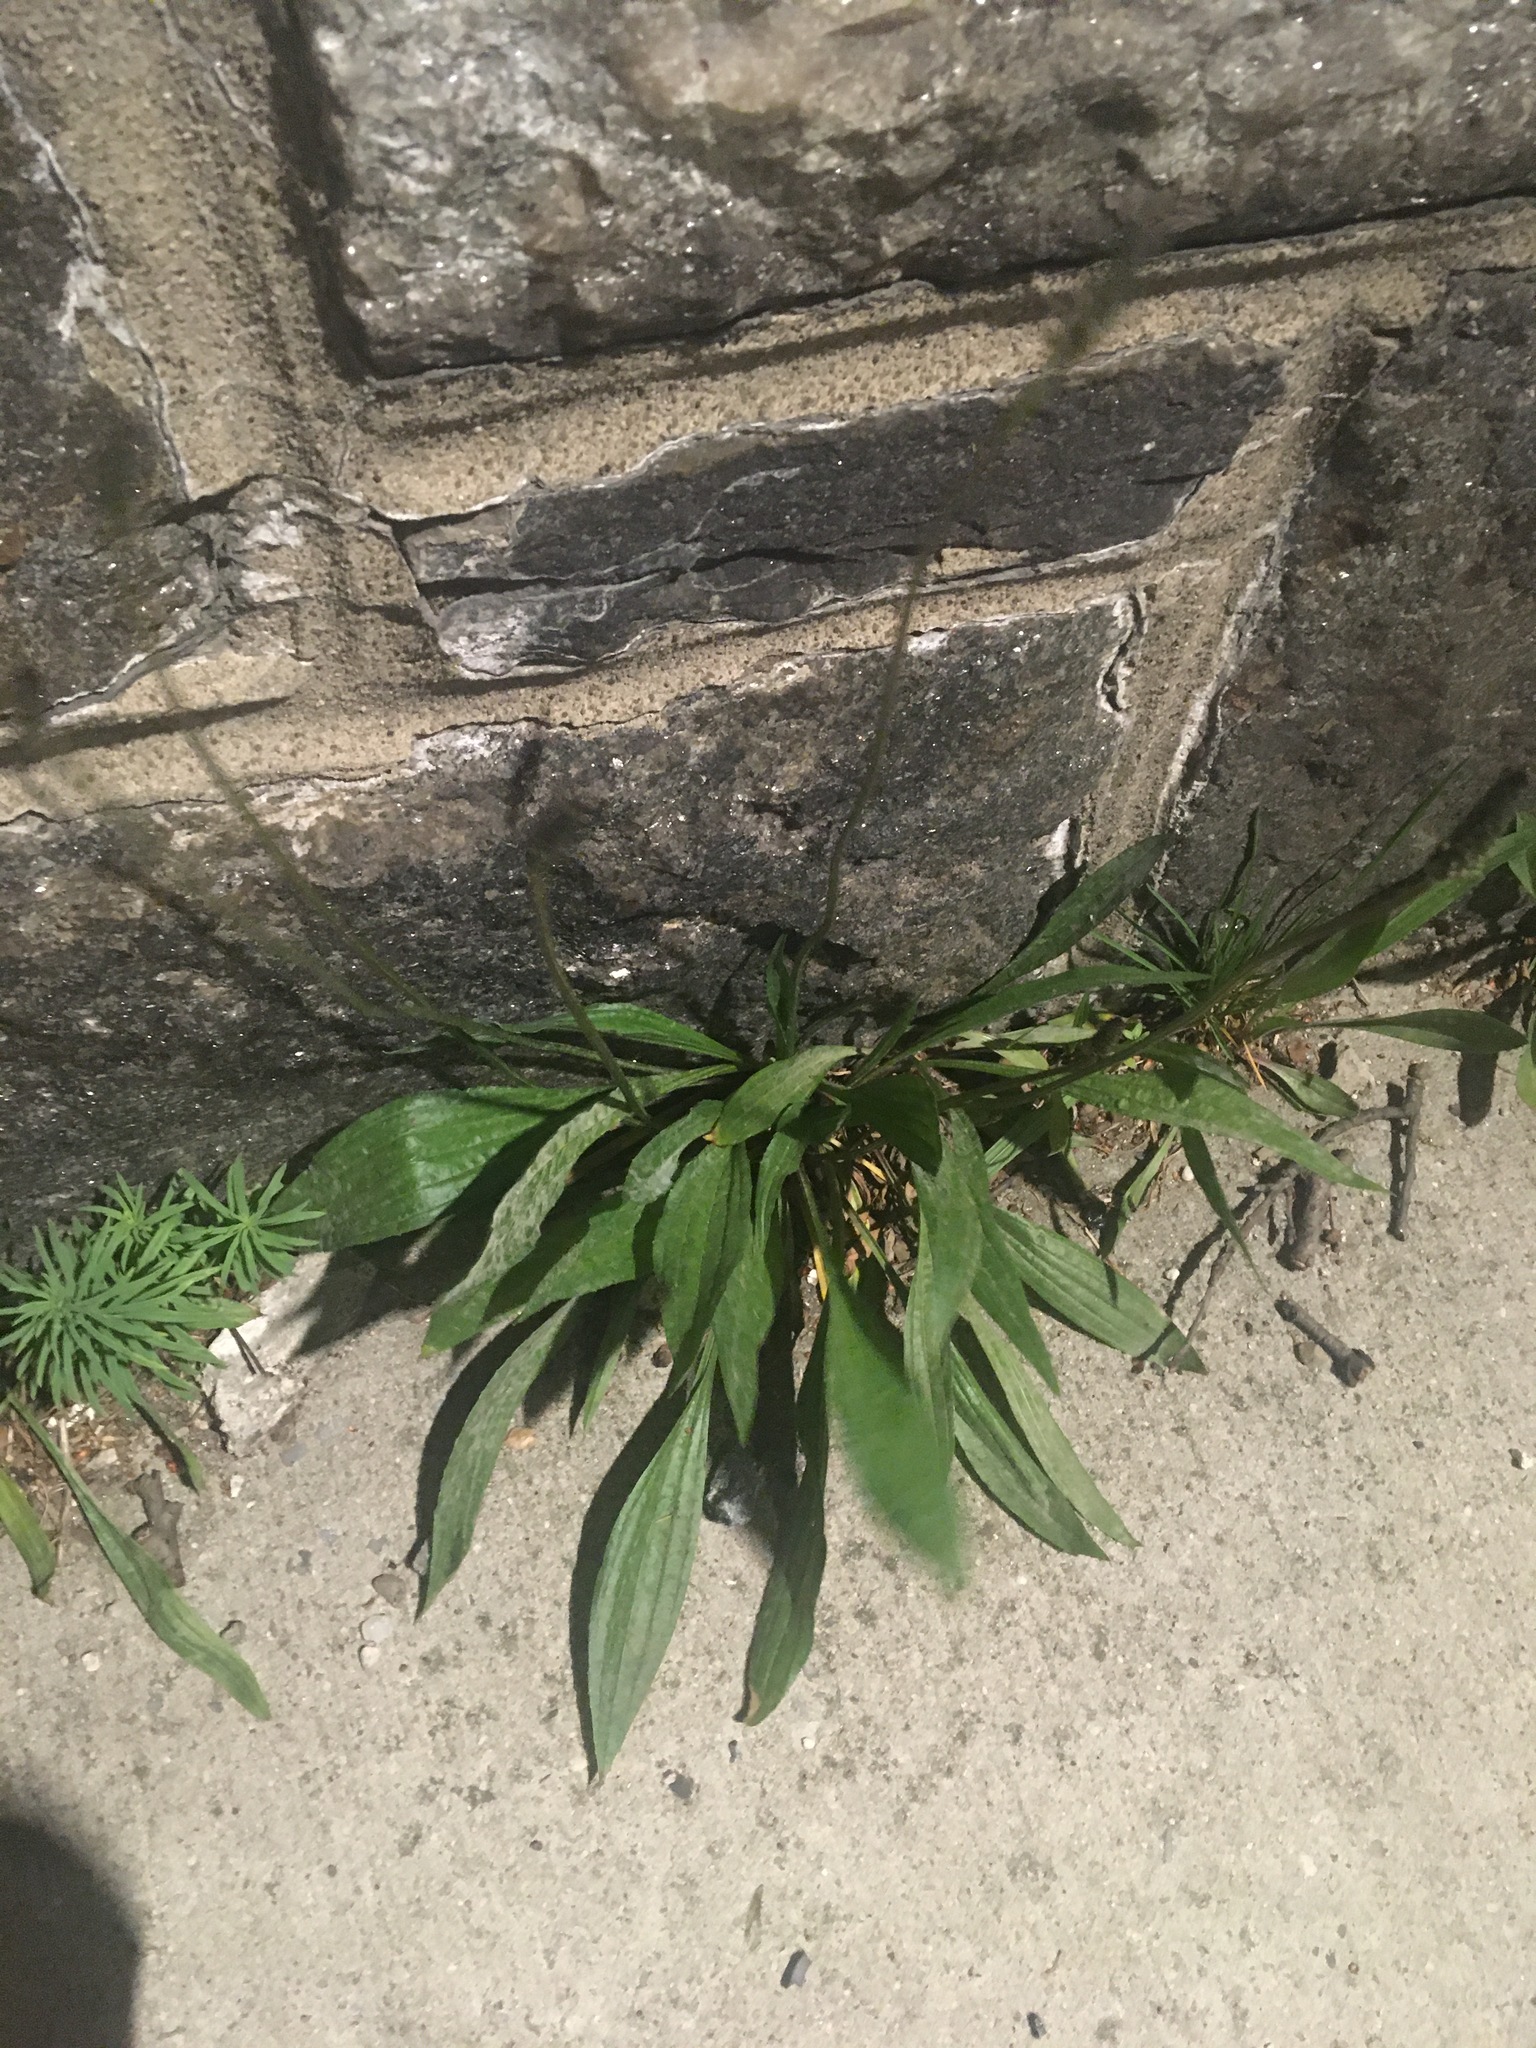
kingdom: Plantae
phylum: Tracheophyta
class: Magnoliopsida
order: Lamiales
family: Plantaginaceae
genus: Plantago
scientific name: Plantago lanceolata
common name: Ribwort plantain
